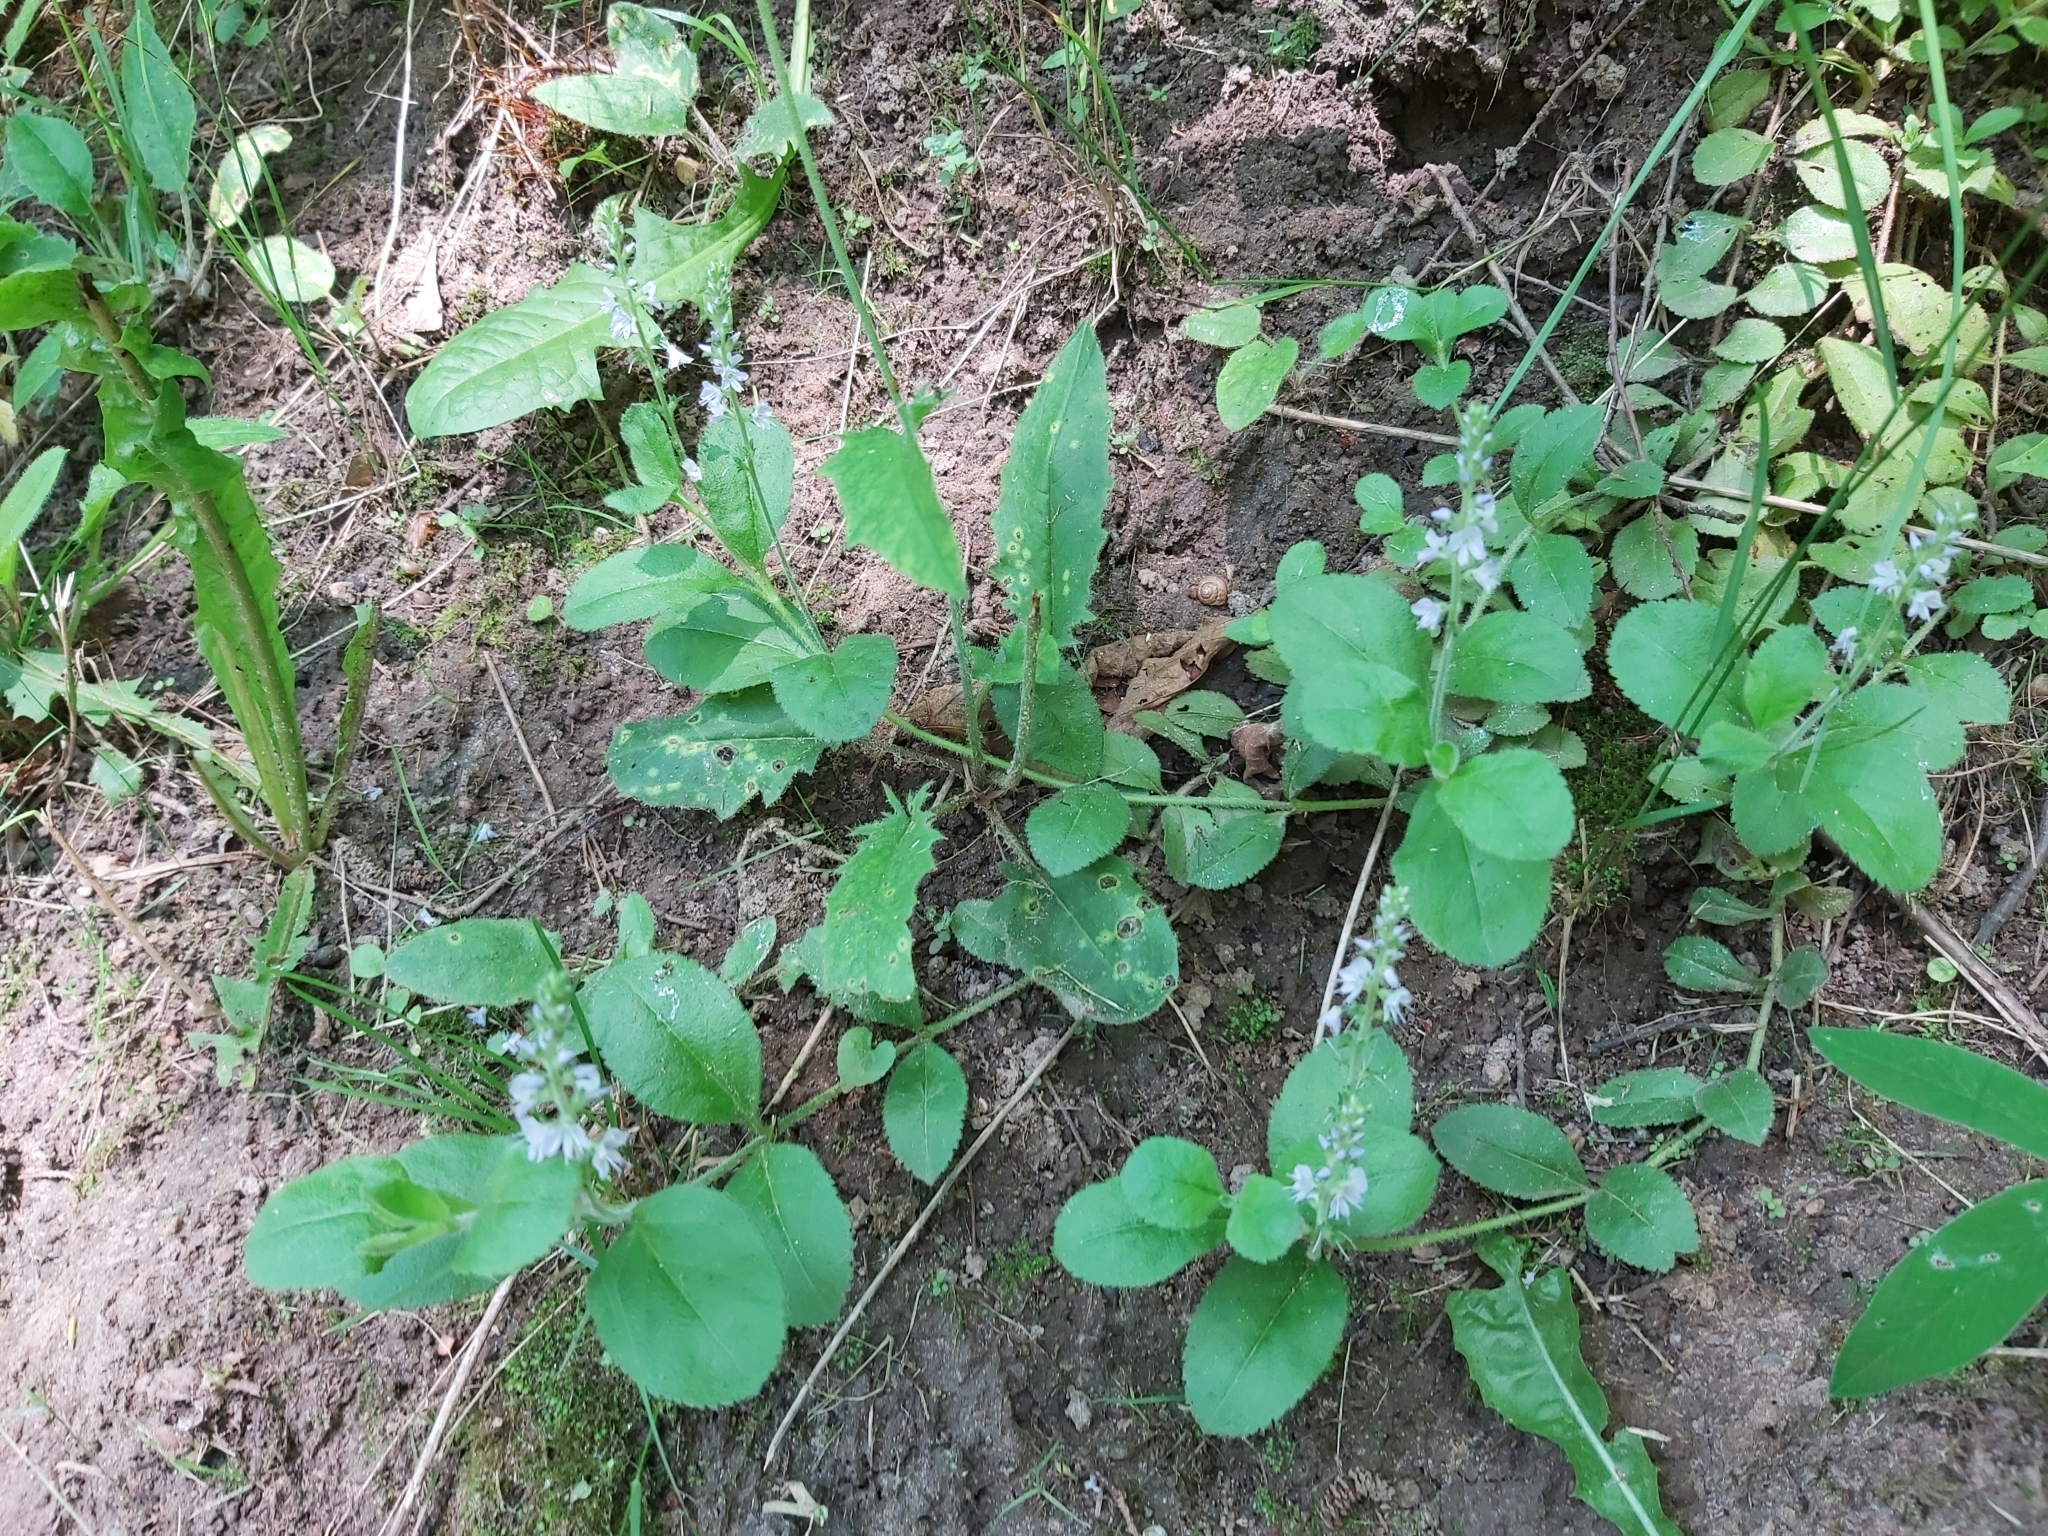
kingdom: Plantae
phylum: Tracheophyta
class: Magnoliopsida
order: Lamiales
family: Plantaginaceae
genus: Veronica
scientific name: Veronica officinalis
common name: Common speedwell
